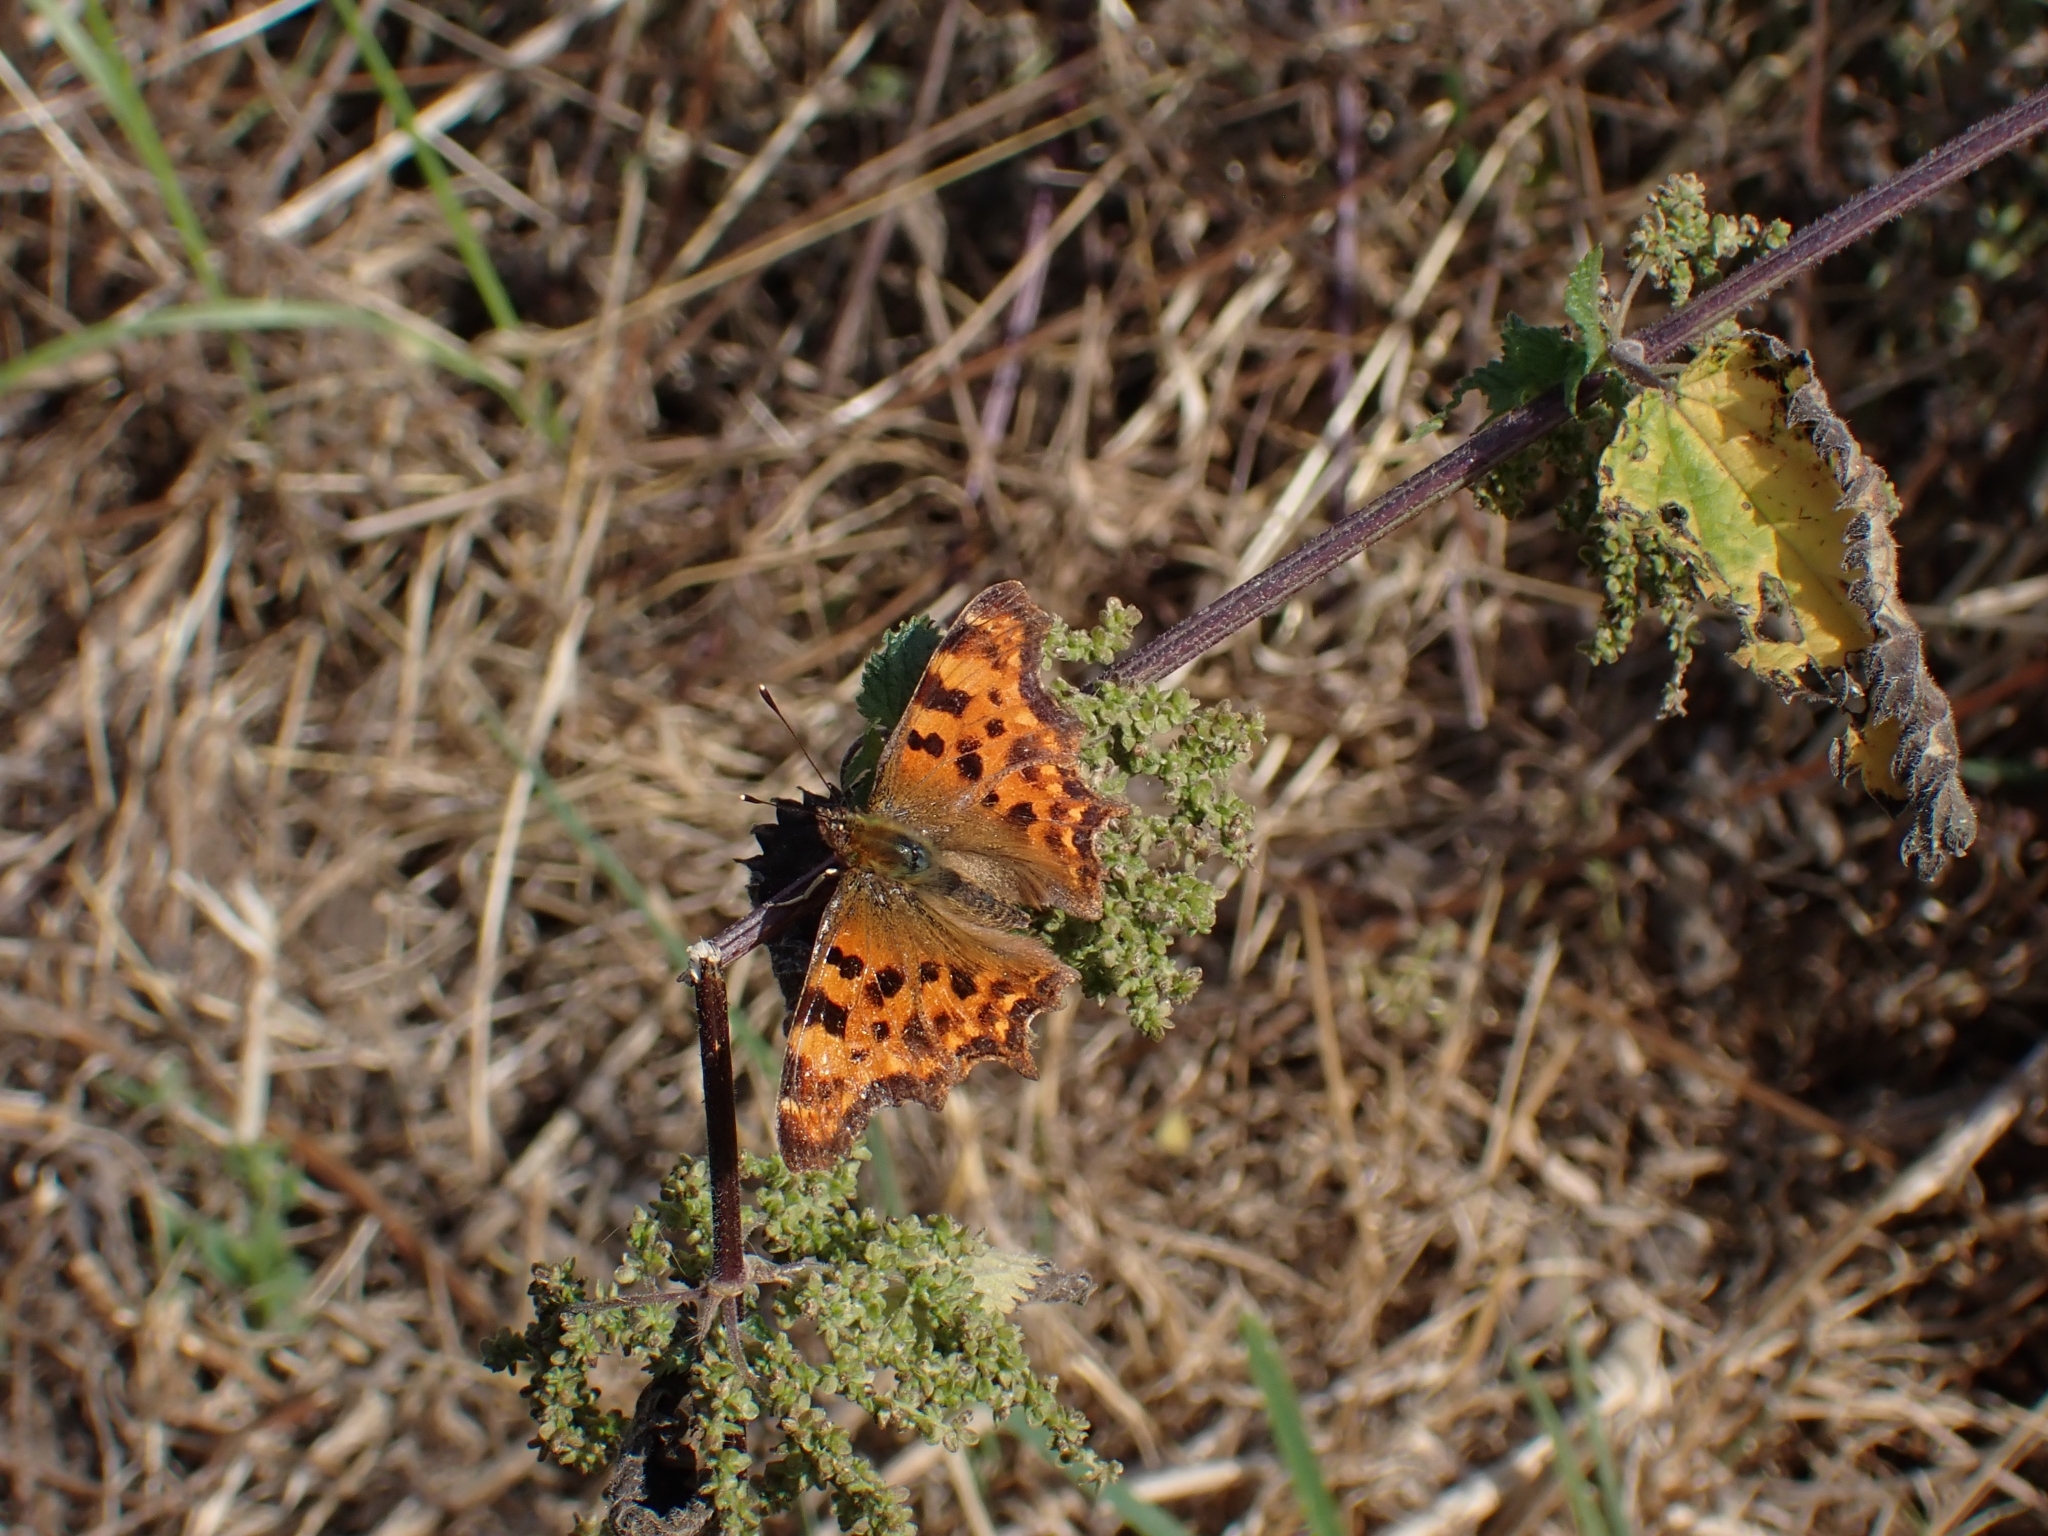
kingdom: Animalia
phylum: Arthropoda
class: Insecta
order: Lepidoptera
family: Nymphalidae
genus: Polygonia
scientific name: Polygonia c-album
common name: Comma
